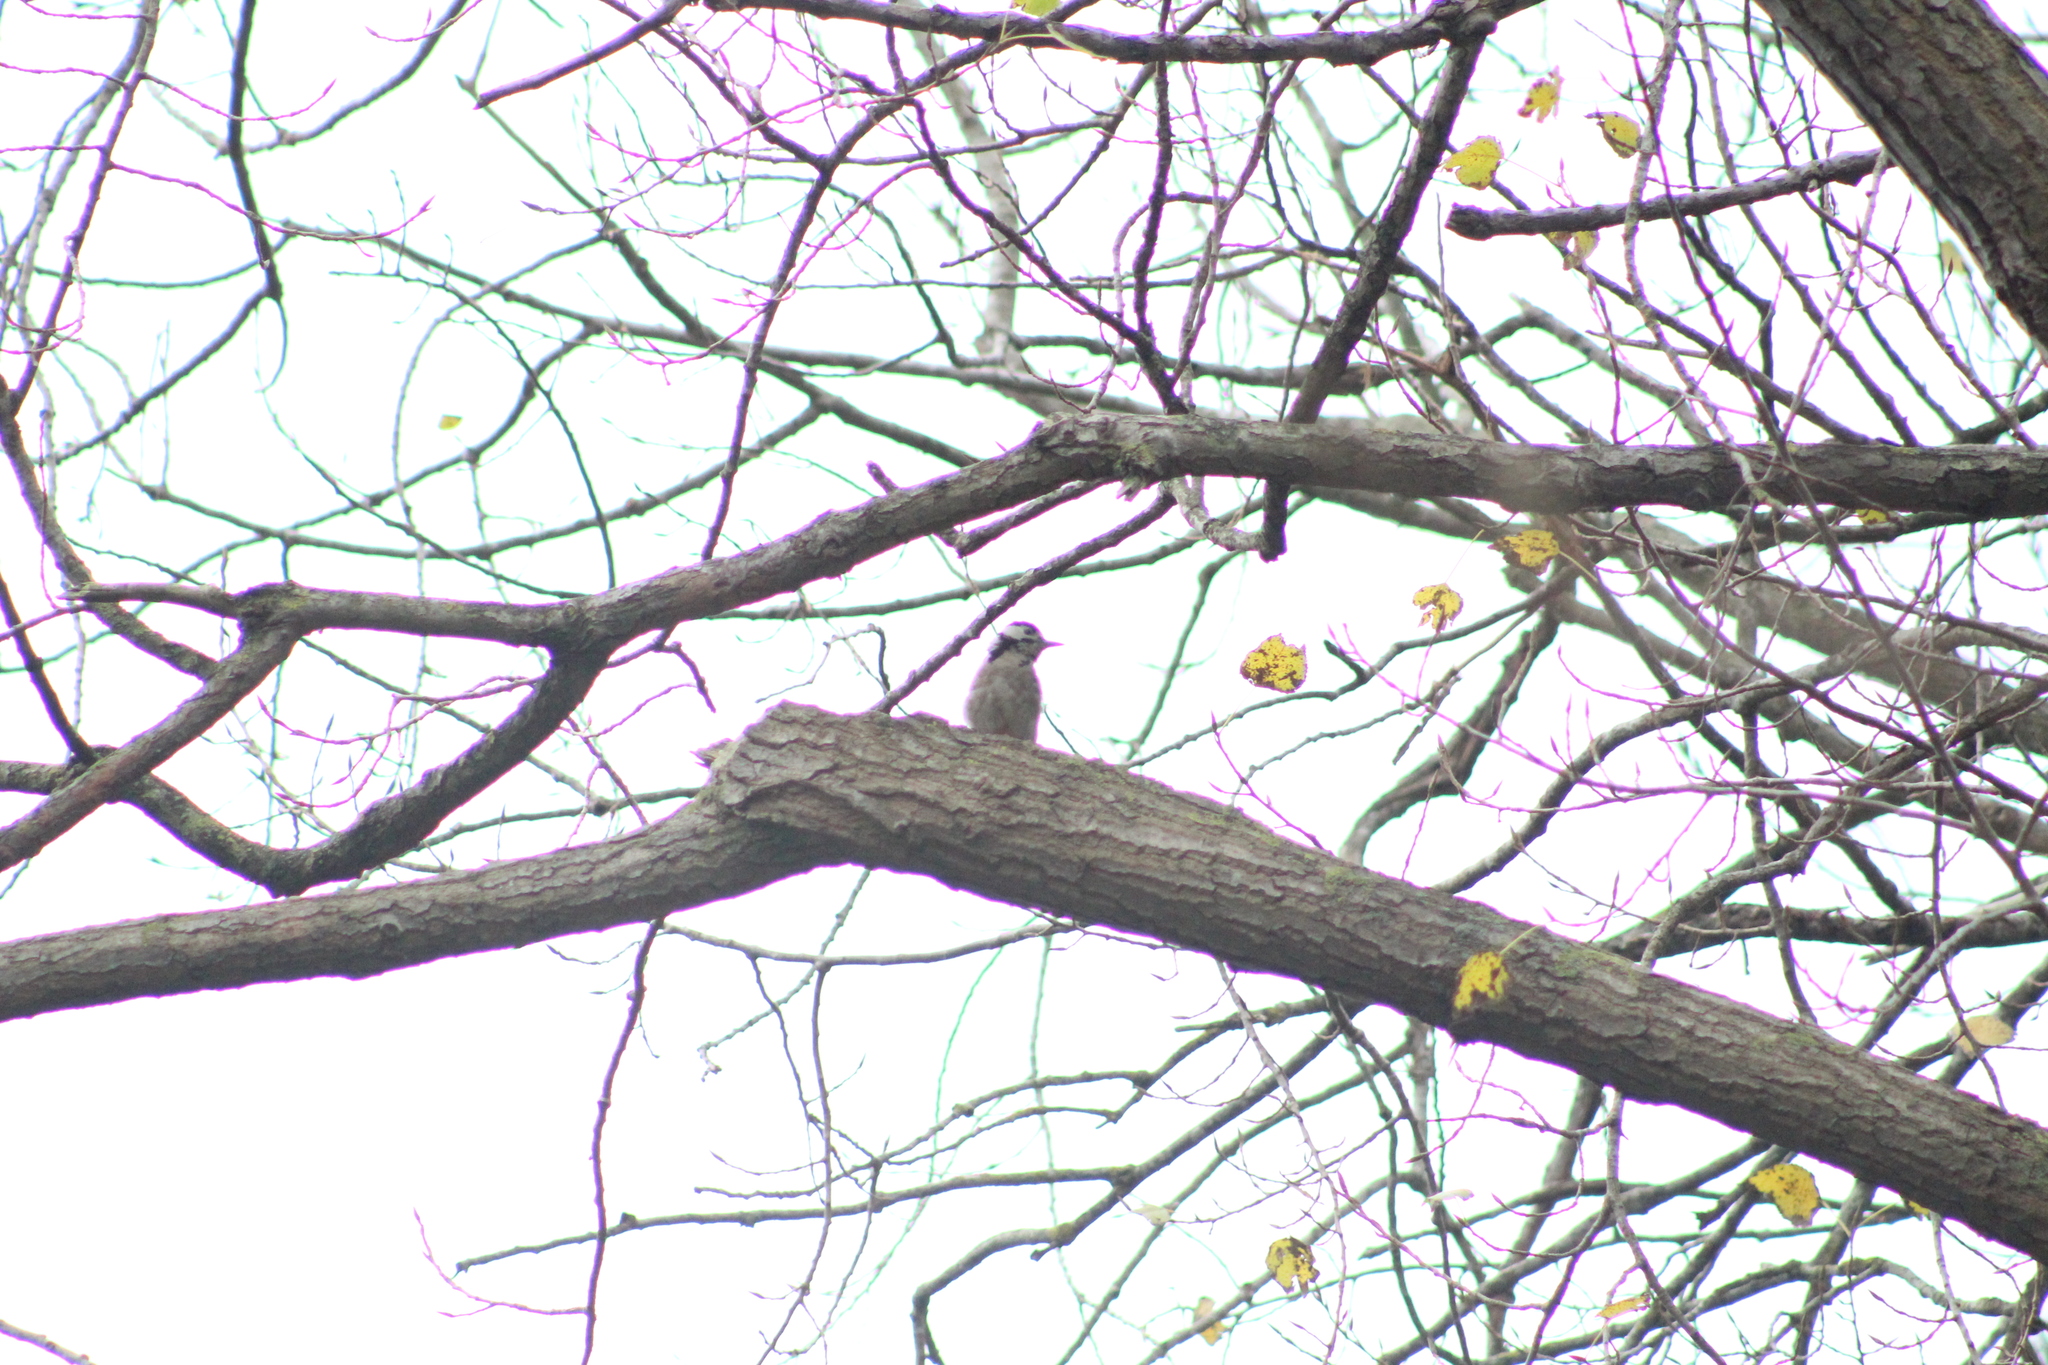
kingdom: Animalia
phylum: Chordata
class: Aves
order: Piciformes
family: Picidae
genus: Dendrocopos
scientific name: Dendrocopos major
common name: Great spotted woodpecker
